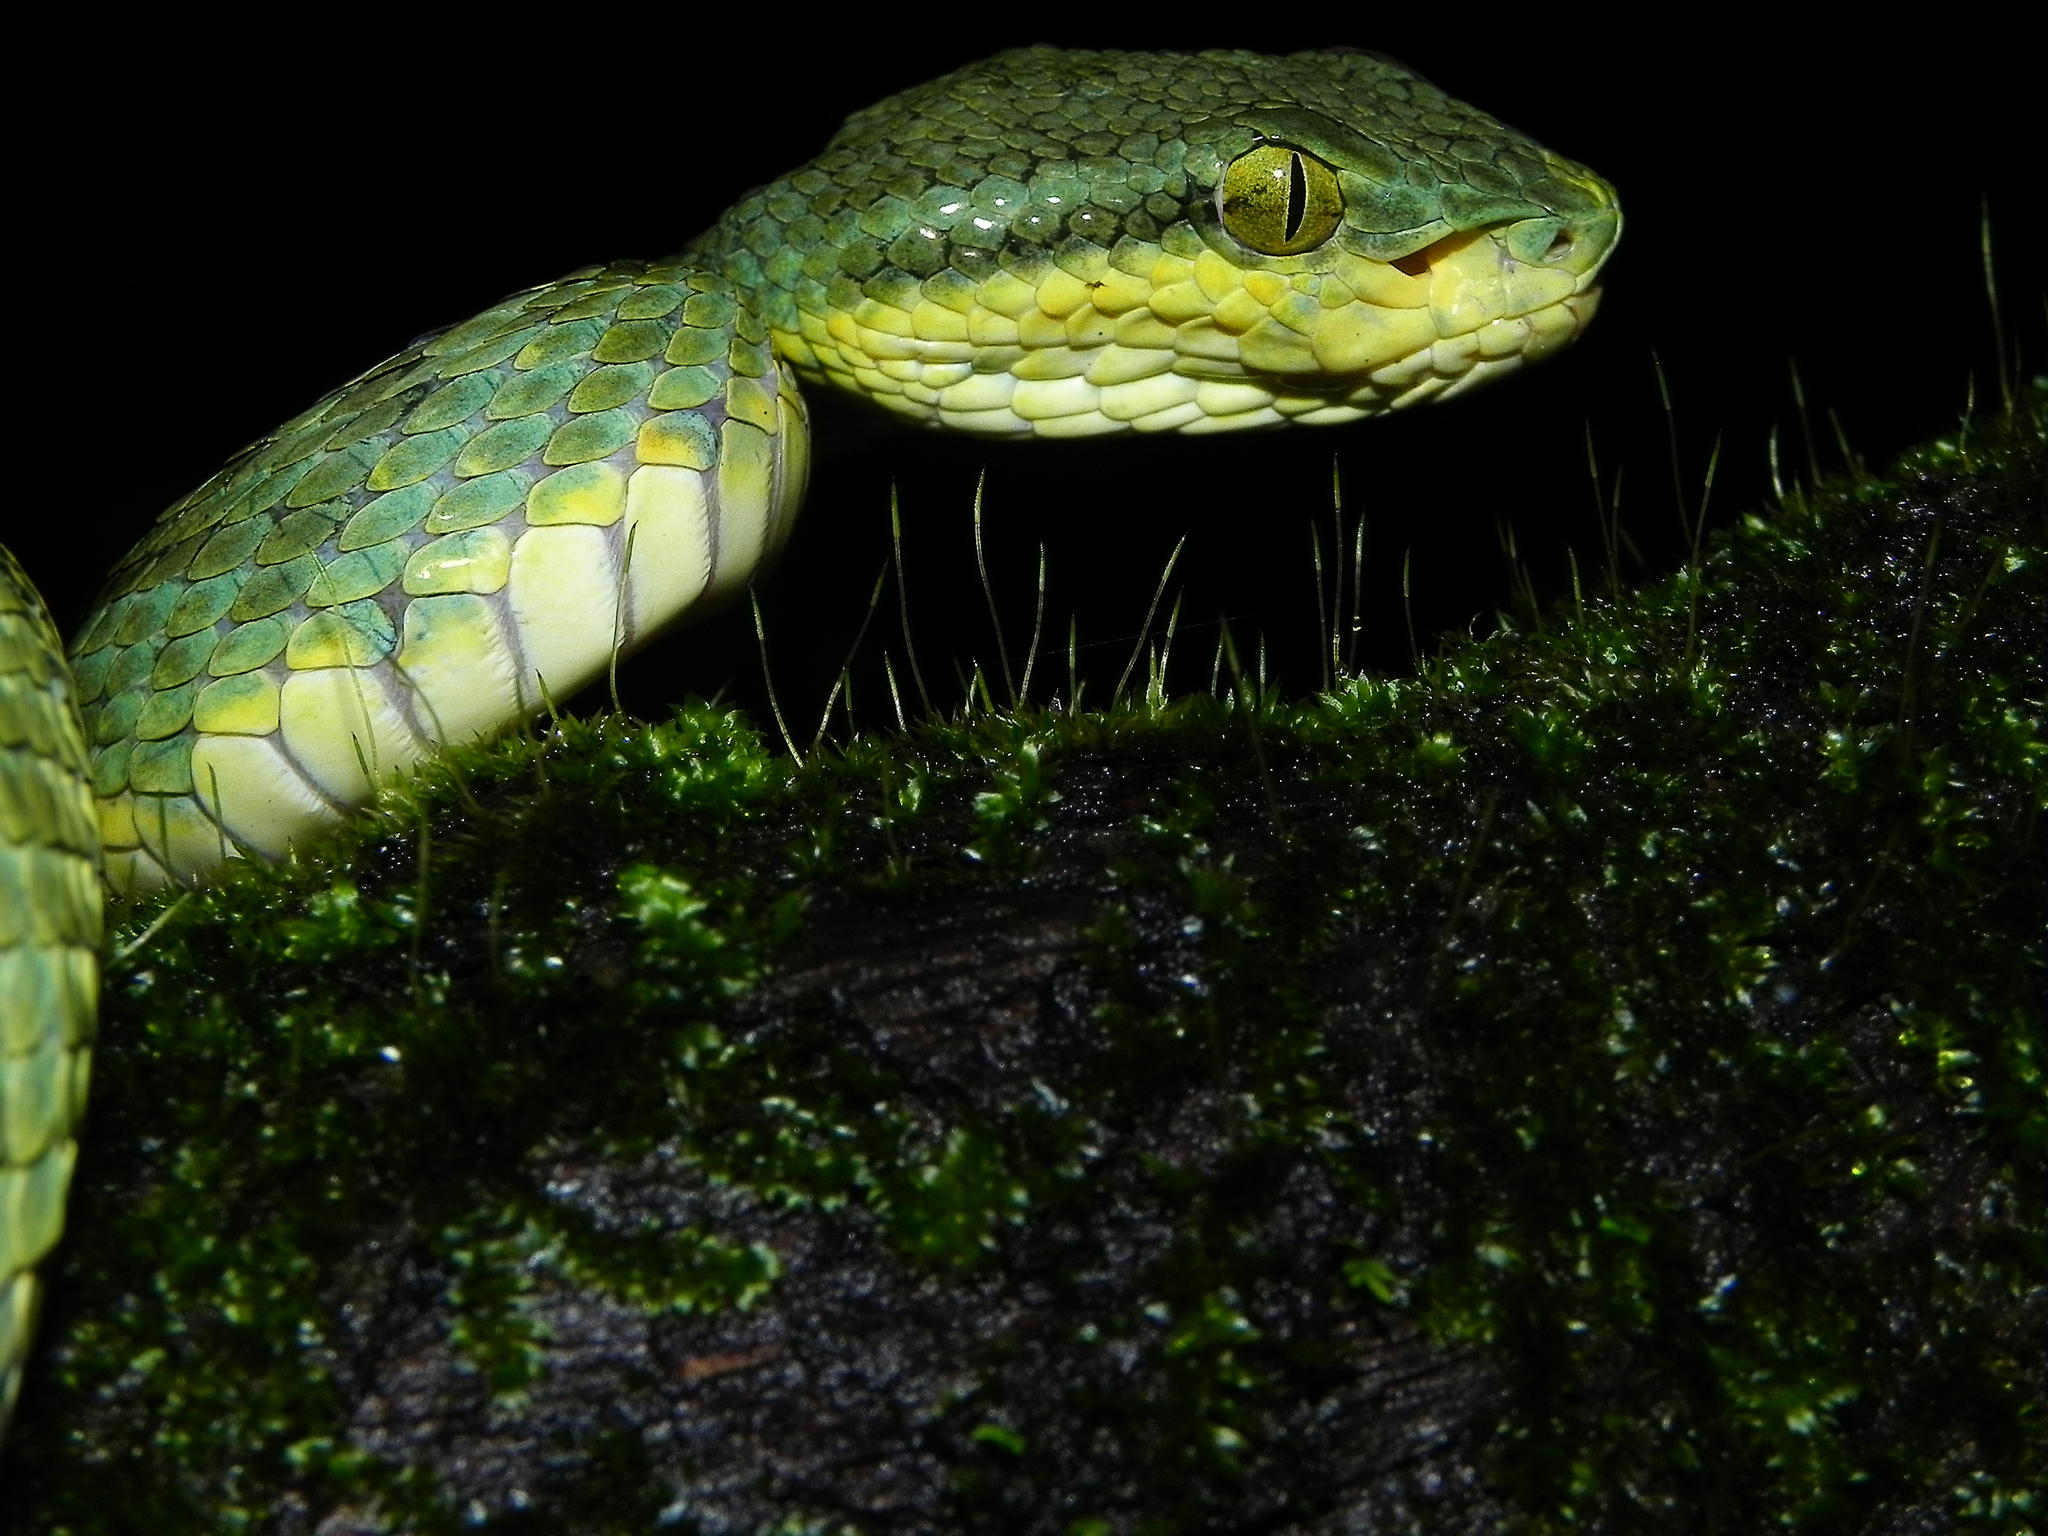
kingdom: Animalia
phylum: Chordata
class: Squamata
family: Viperidae
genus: Craspedocephalus
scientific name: Craspedocephalus gramineus
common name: Common bamboo viper
